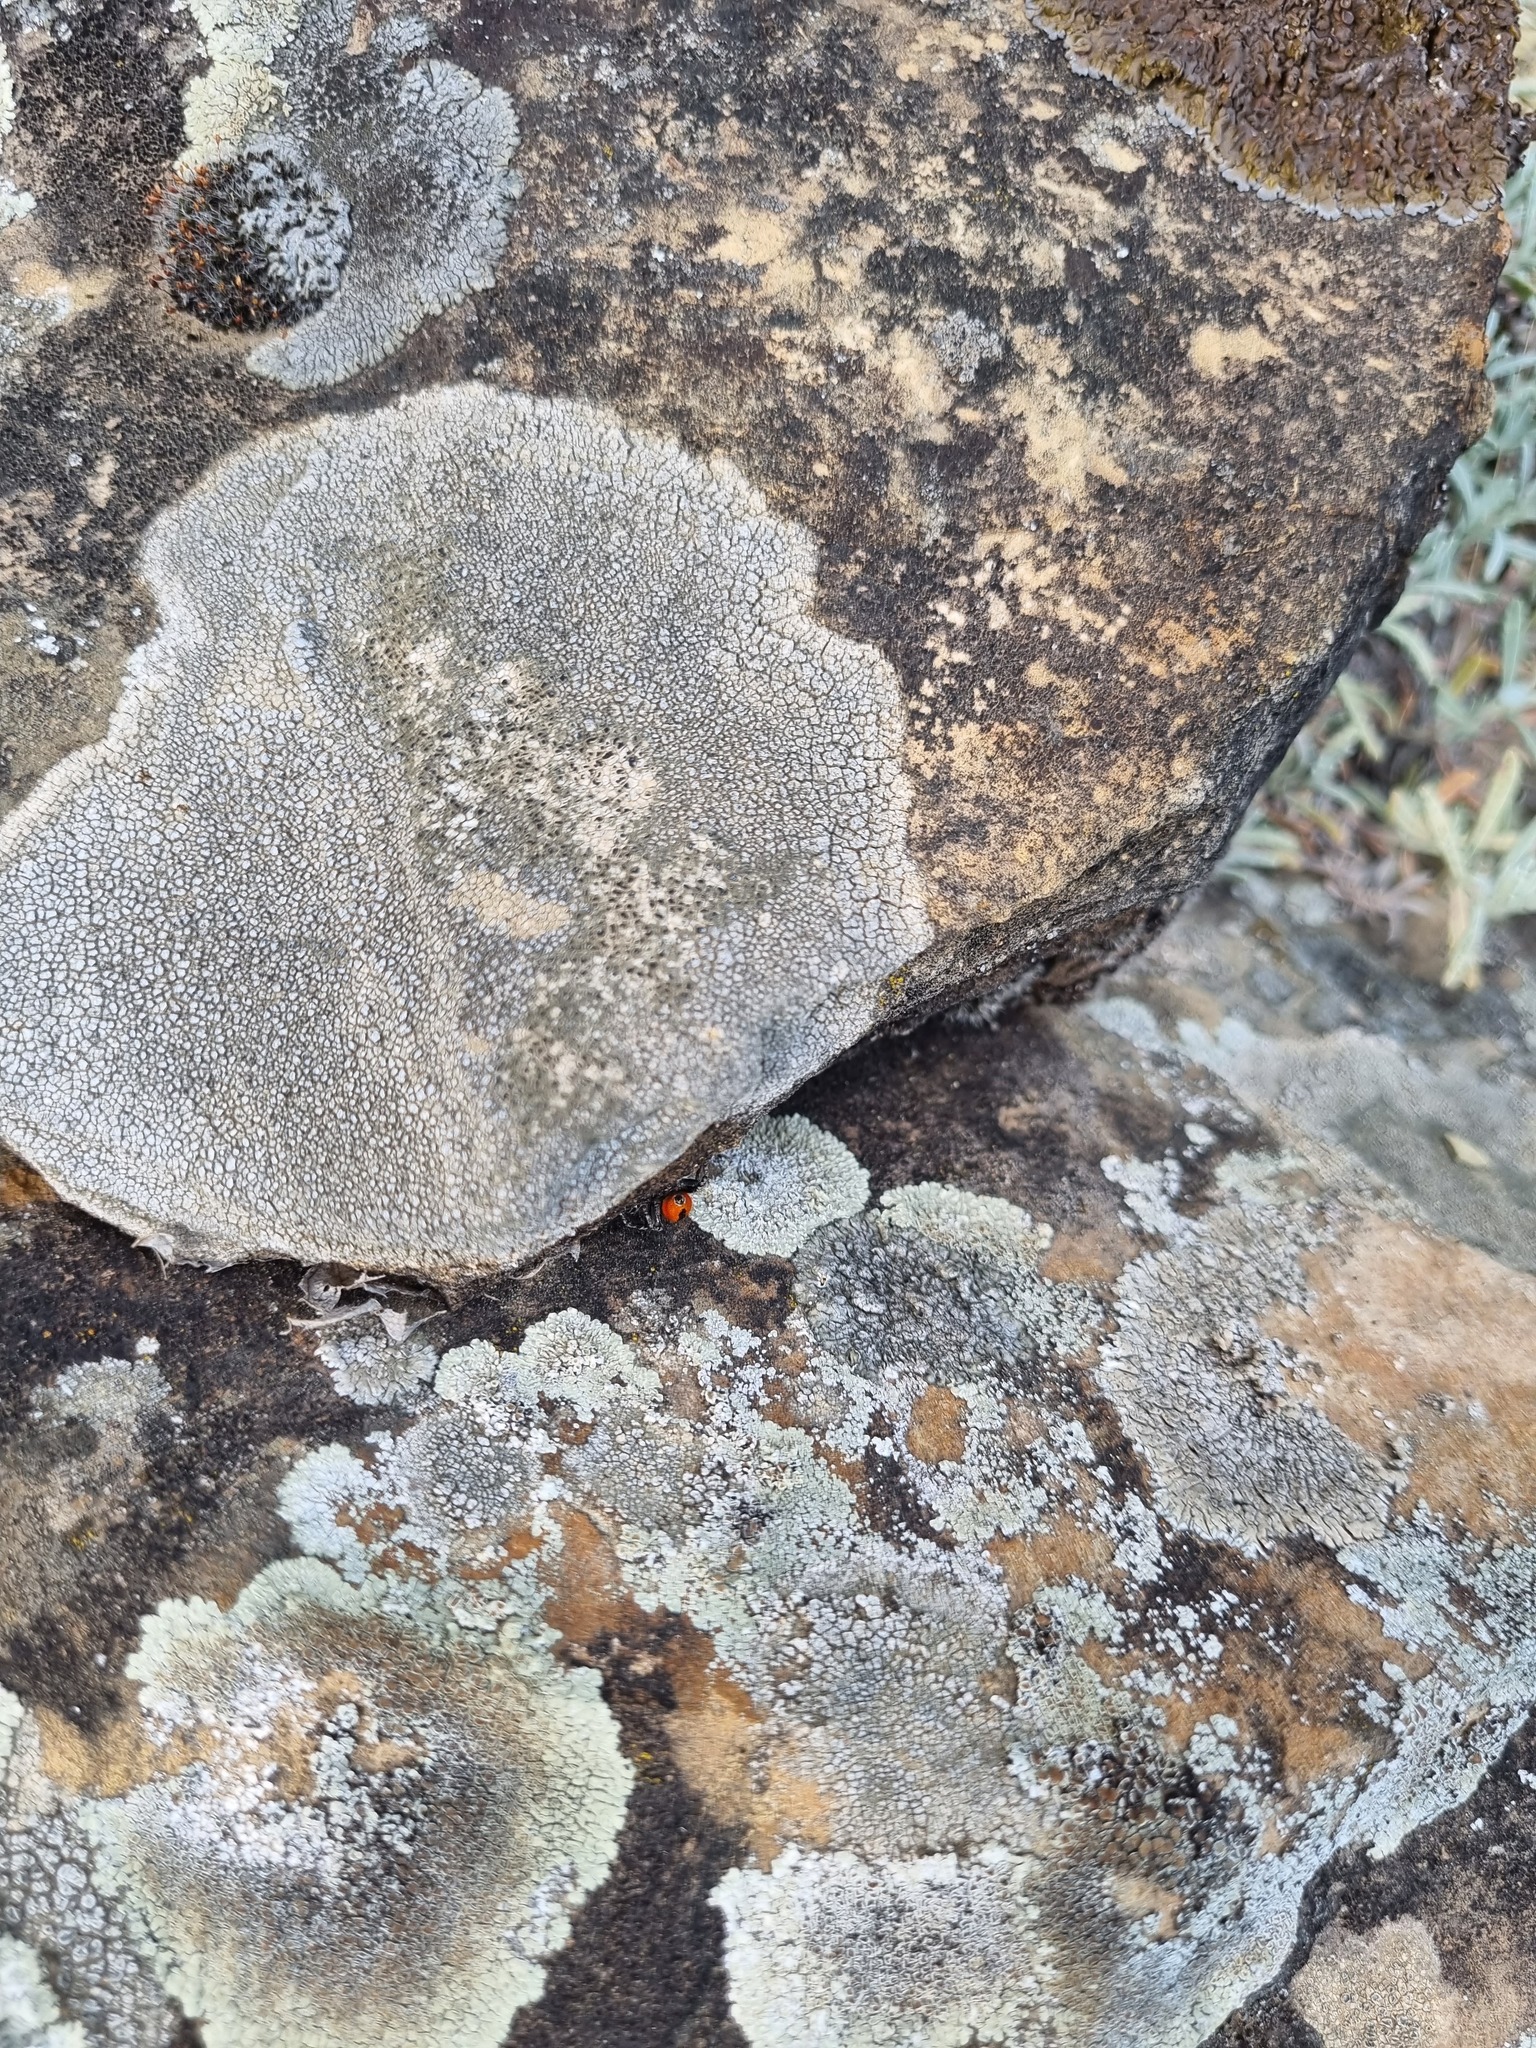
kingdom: Fungi
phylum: Ascomycota
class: Lecanoromycetes
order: Lecanorales
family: Parmeliaceae
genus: Xanthoparmelia
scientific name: Xanthoparmelia pulla
